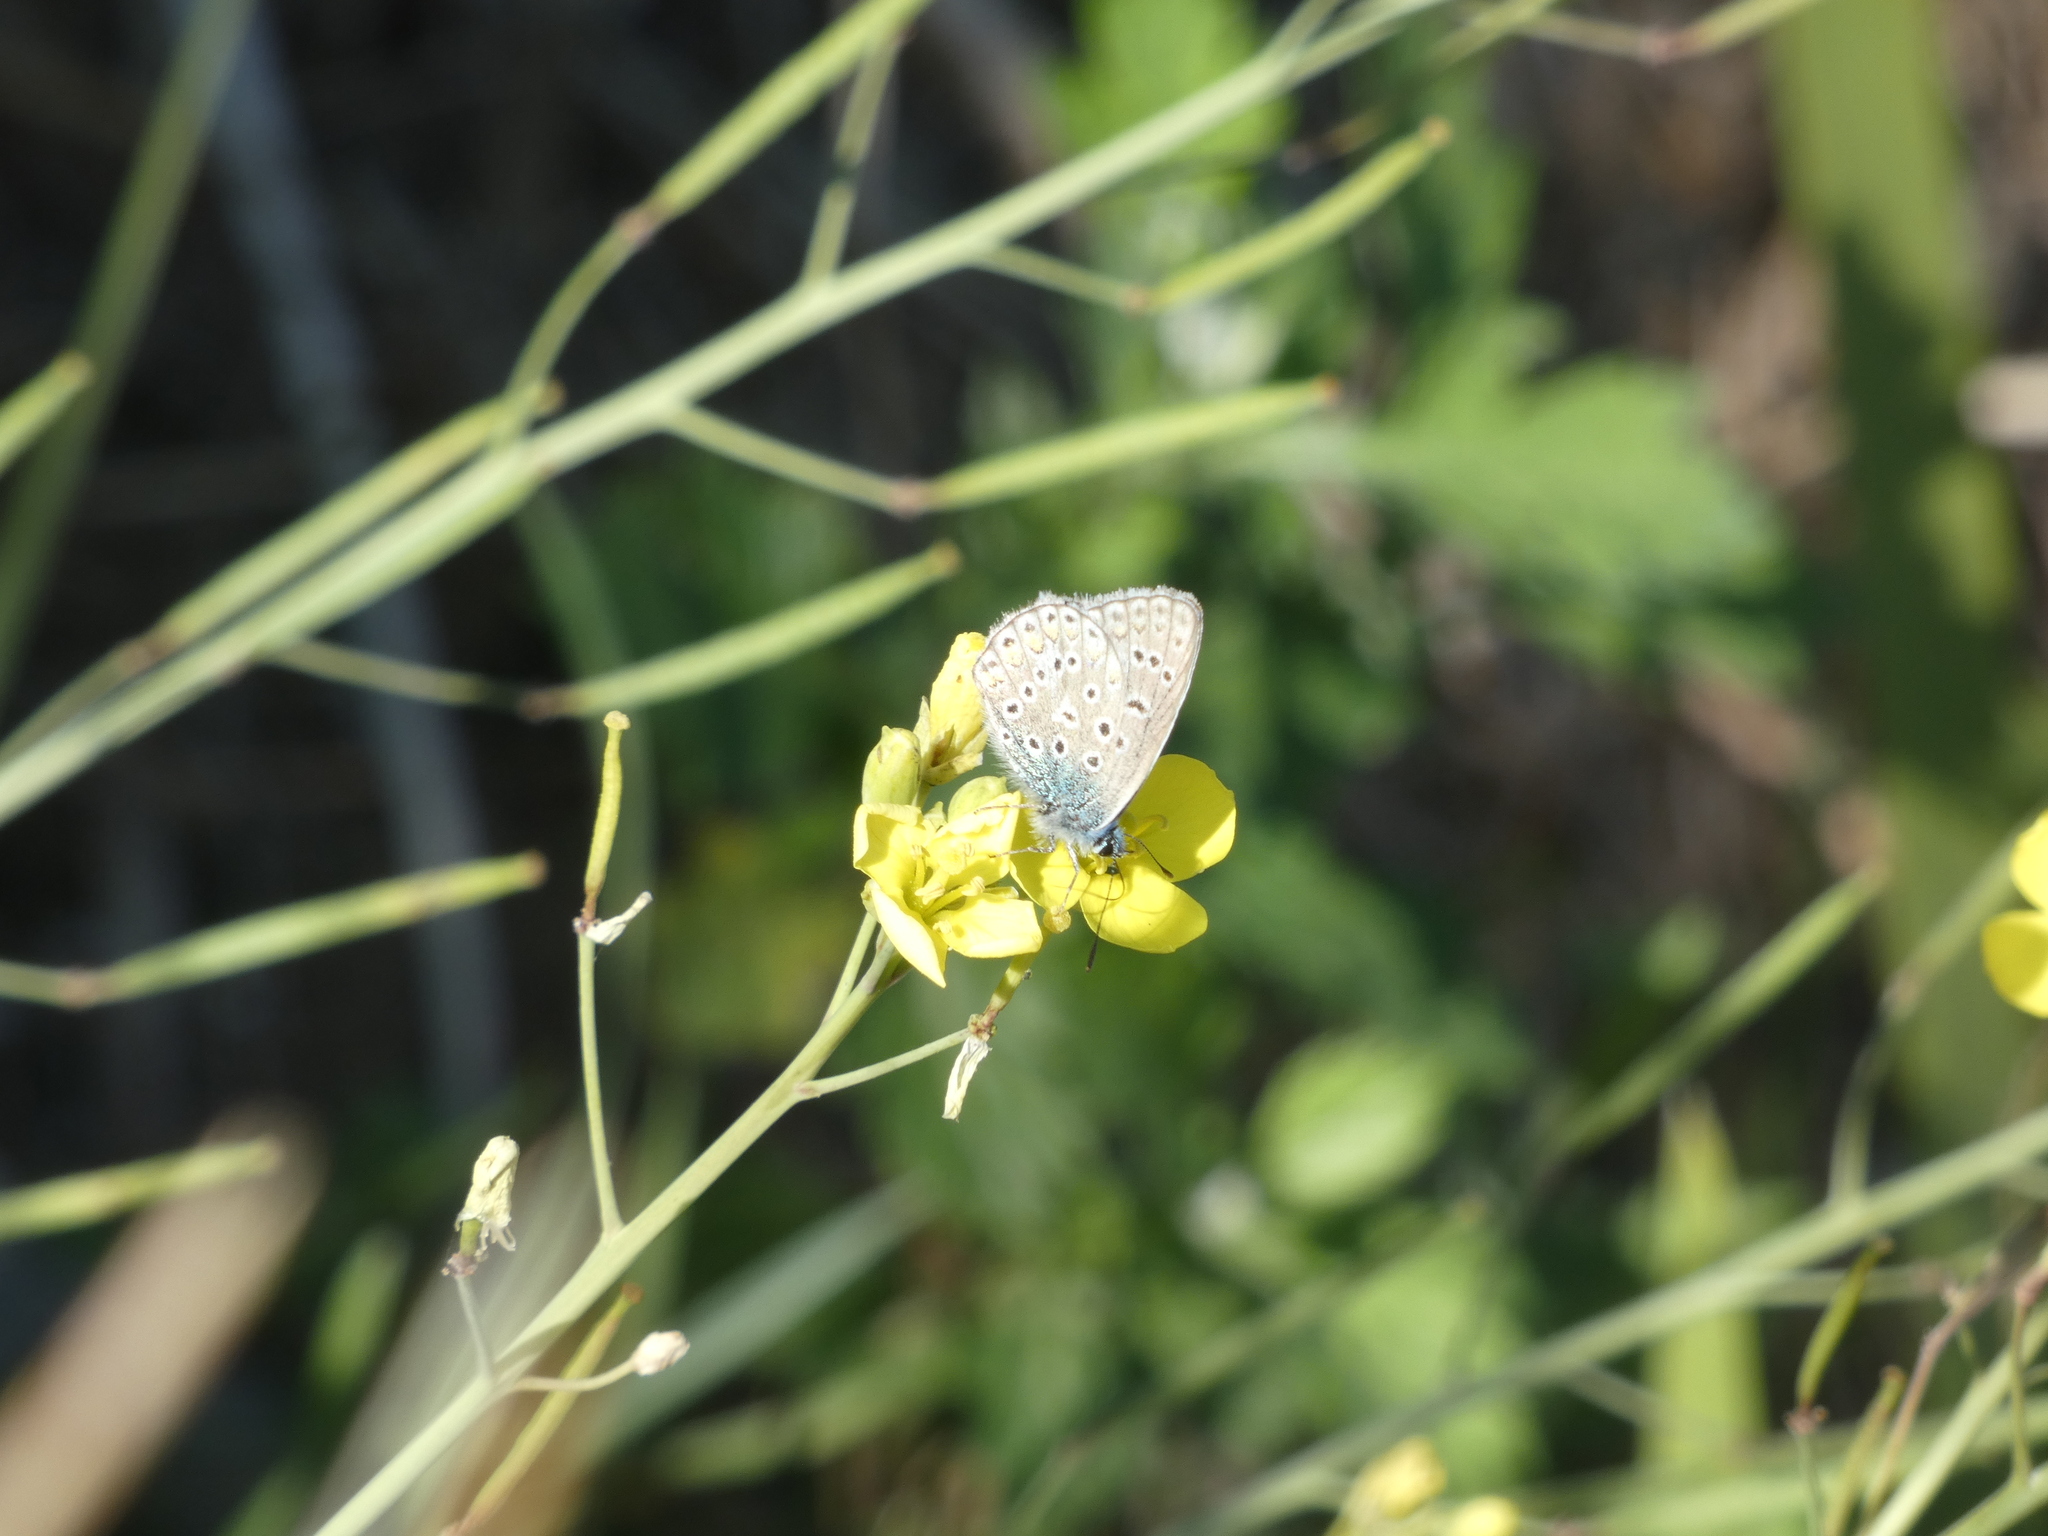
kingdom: Animalia
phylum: Arthropoda
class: Insecta
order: Lepidoptera
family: Lycaenidae
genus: Polyommatus
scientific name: Polyommatus icarus
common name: Common blue
